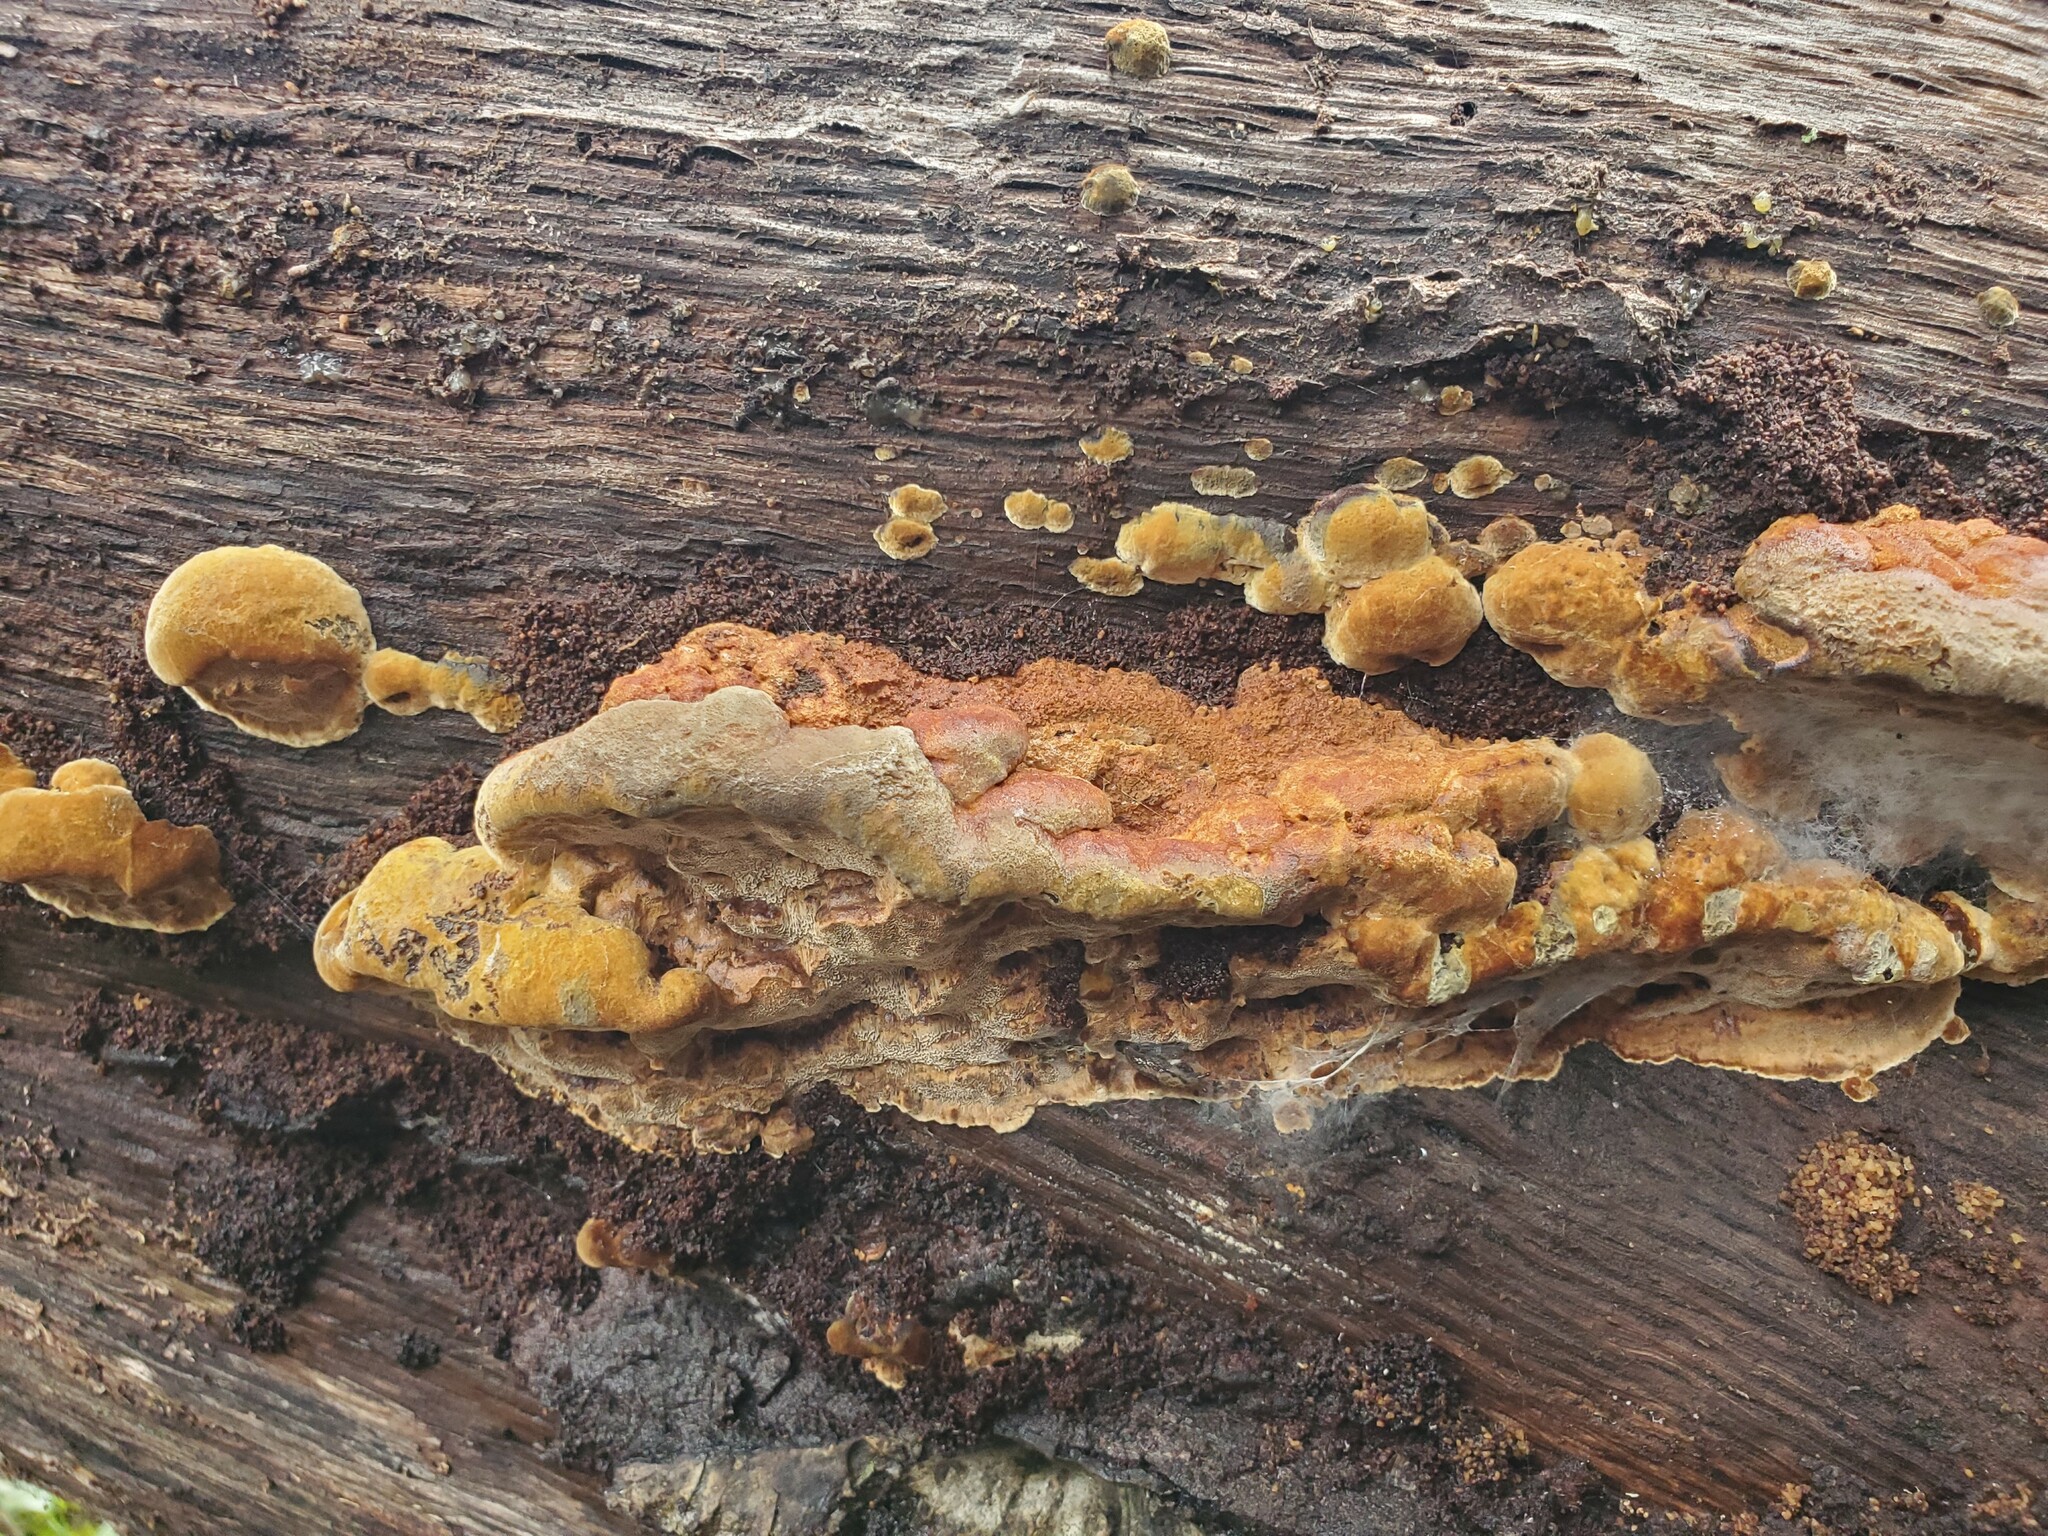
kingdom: Fungi
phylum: Basidiomycota
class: Agaricomycetes
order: Hymenochaetales
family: Hymenochaetaceae
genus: Phellinus
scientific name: Phellinus gilvus
